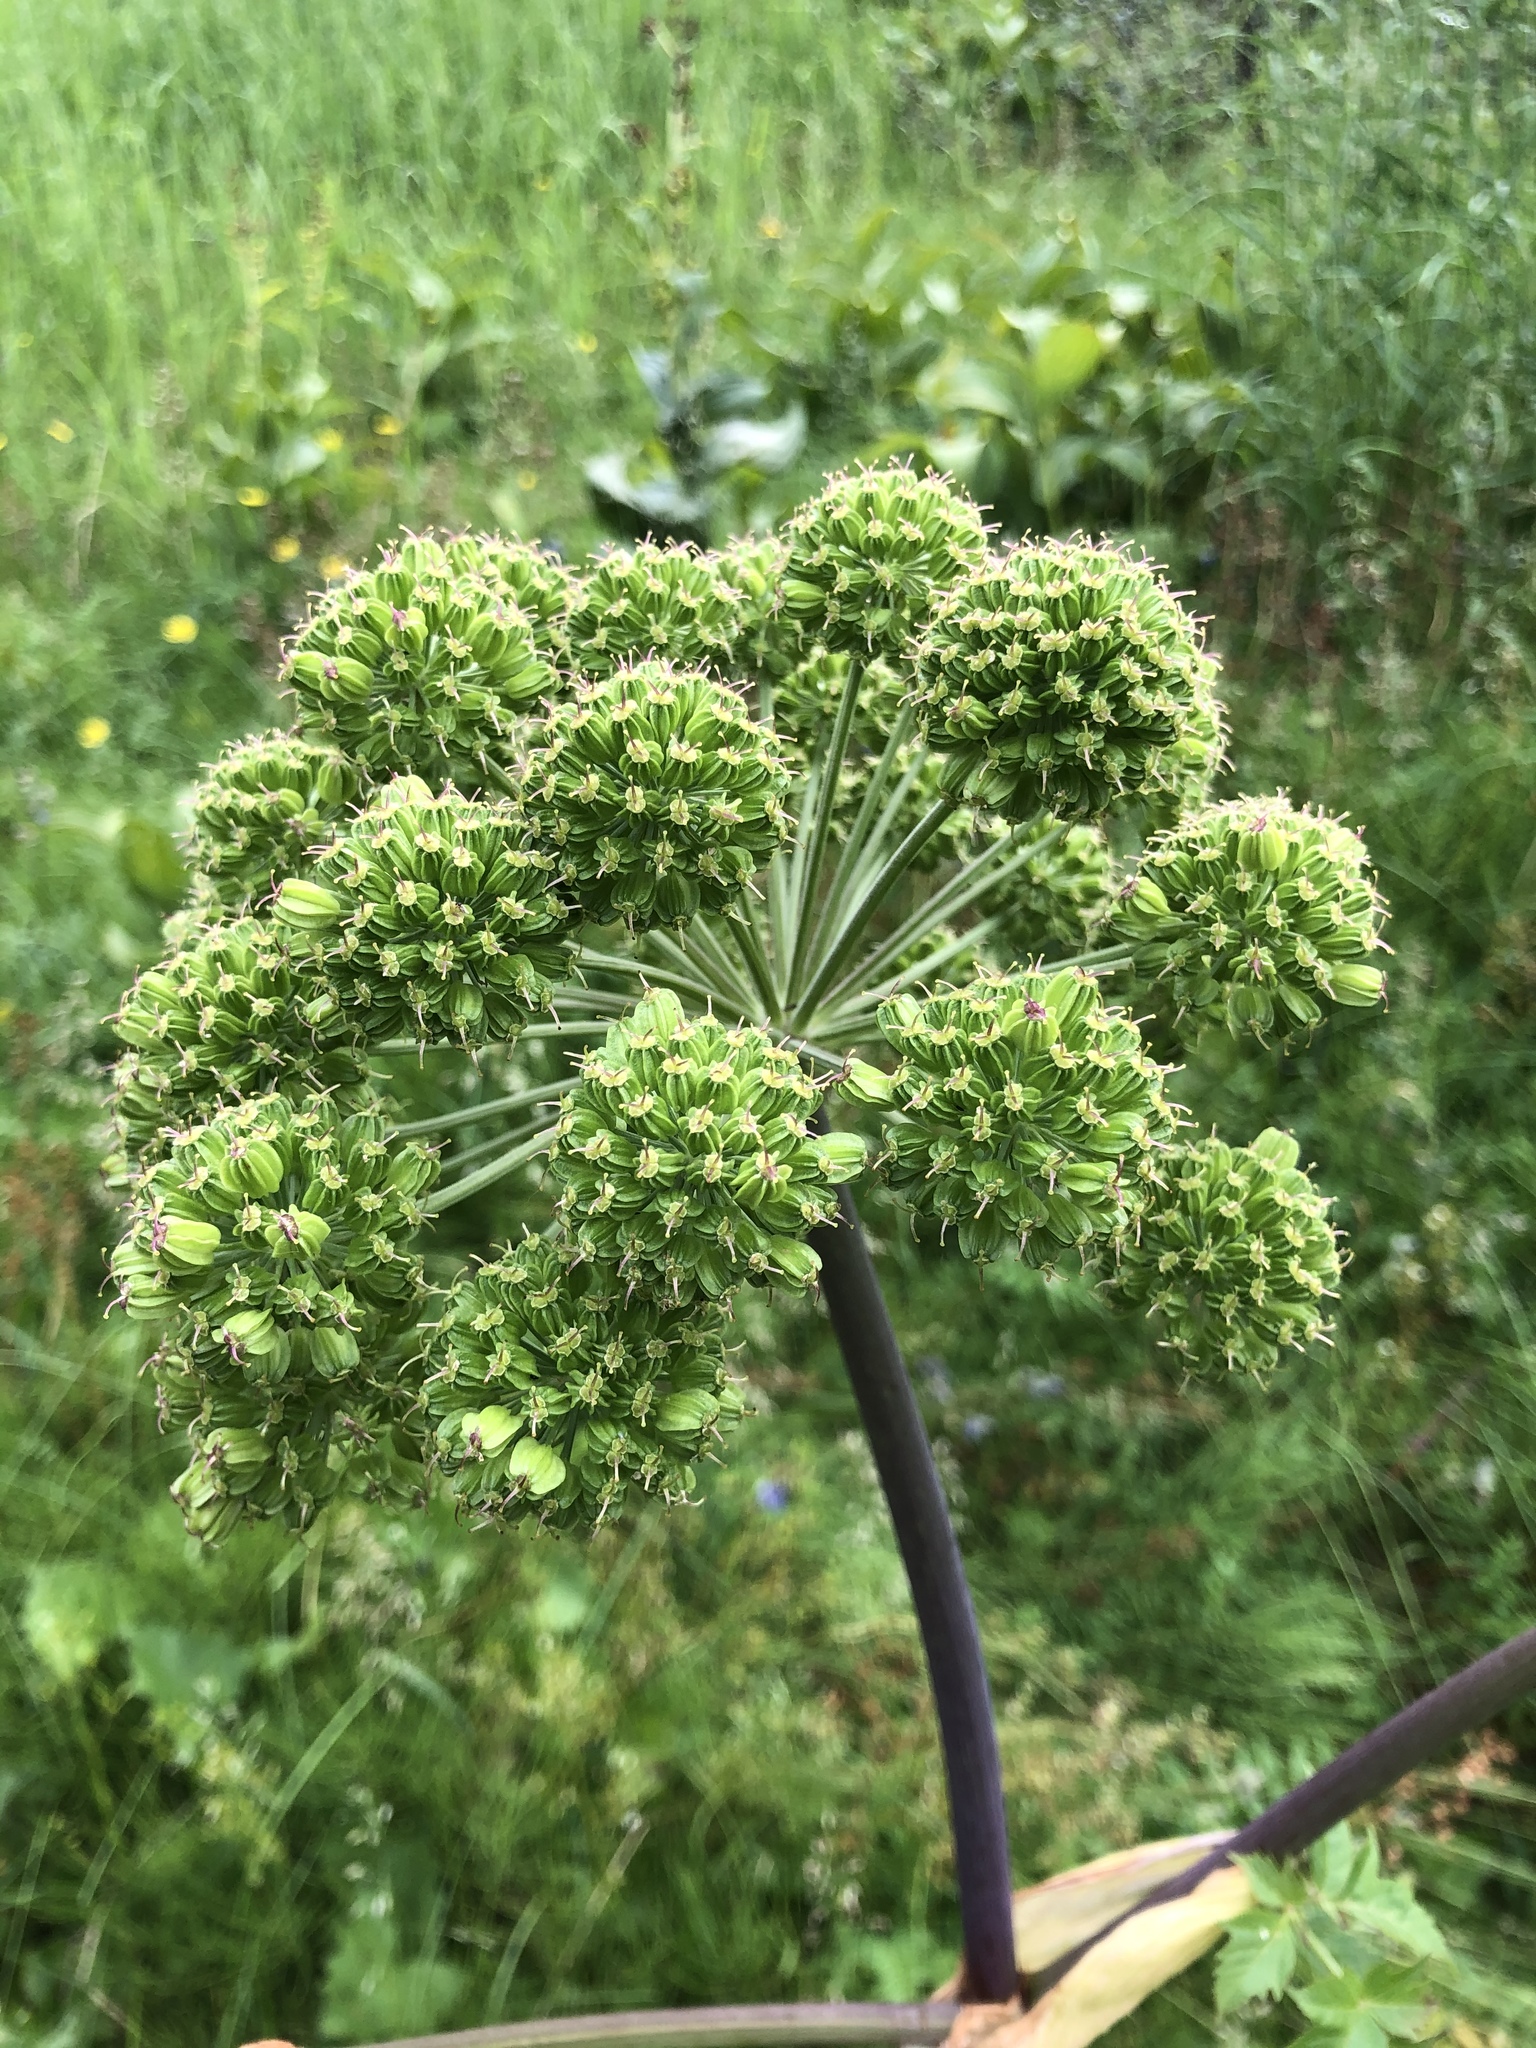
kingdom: Plantae
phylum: Tracheophyta
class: Magnoliopsida
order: Apiales
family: Apiaceae
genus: Angelica
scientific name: Angelica decurrens
